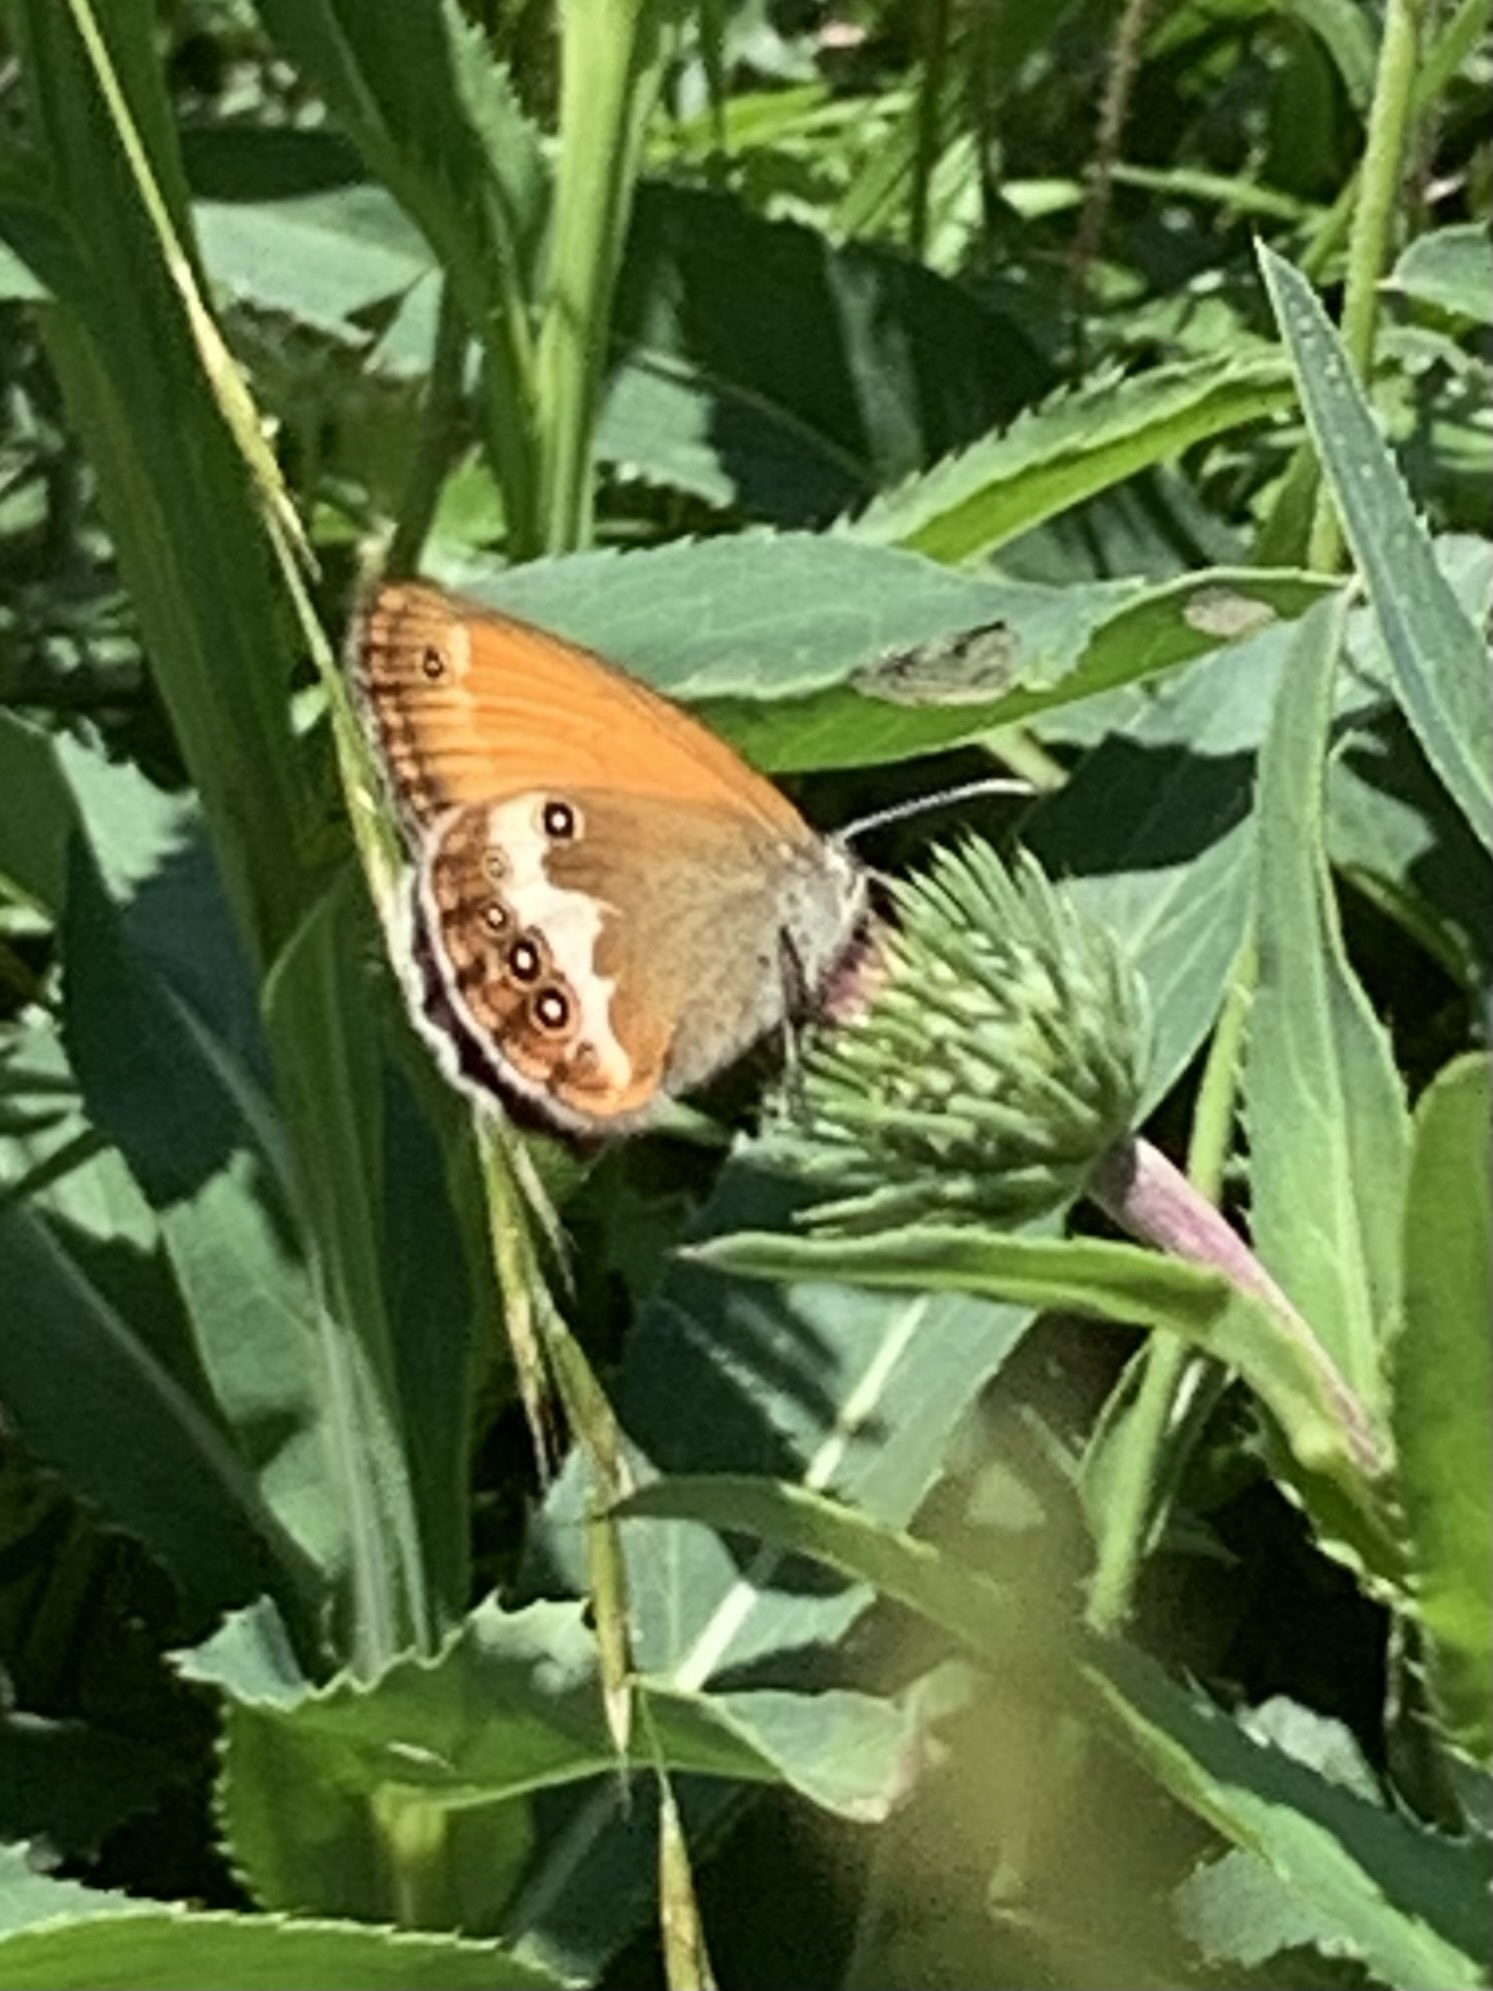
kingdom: Animalia
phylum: Arthropoda
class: Insecta
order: Lepidoptera
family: Nymphalidae
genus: Coenonympha
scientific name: Coenonympha arcania
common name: Pearly heath
